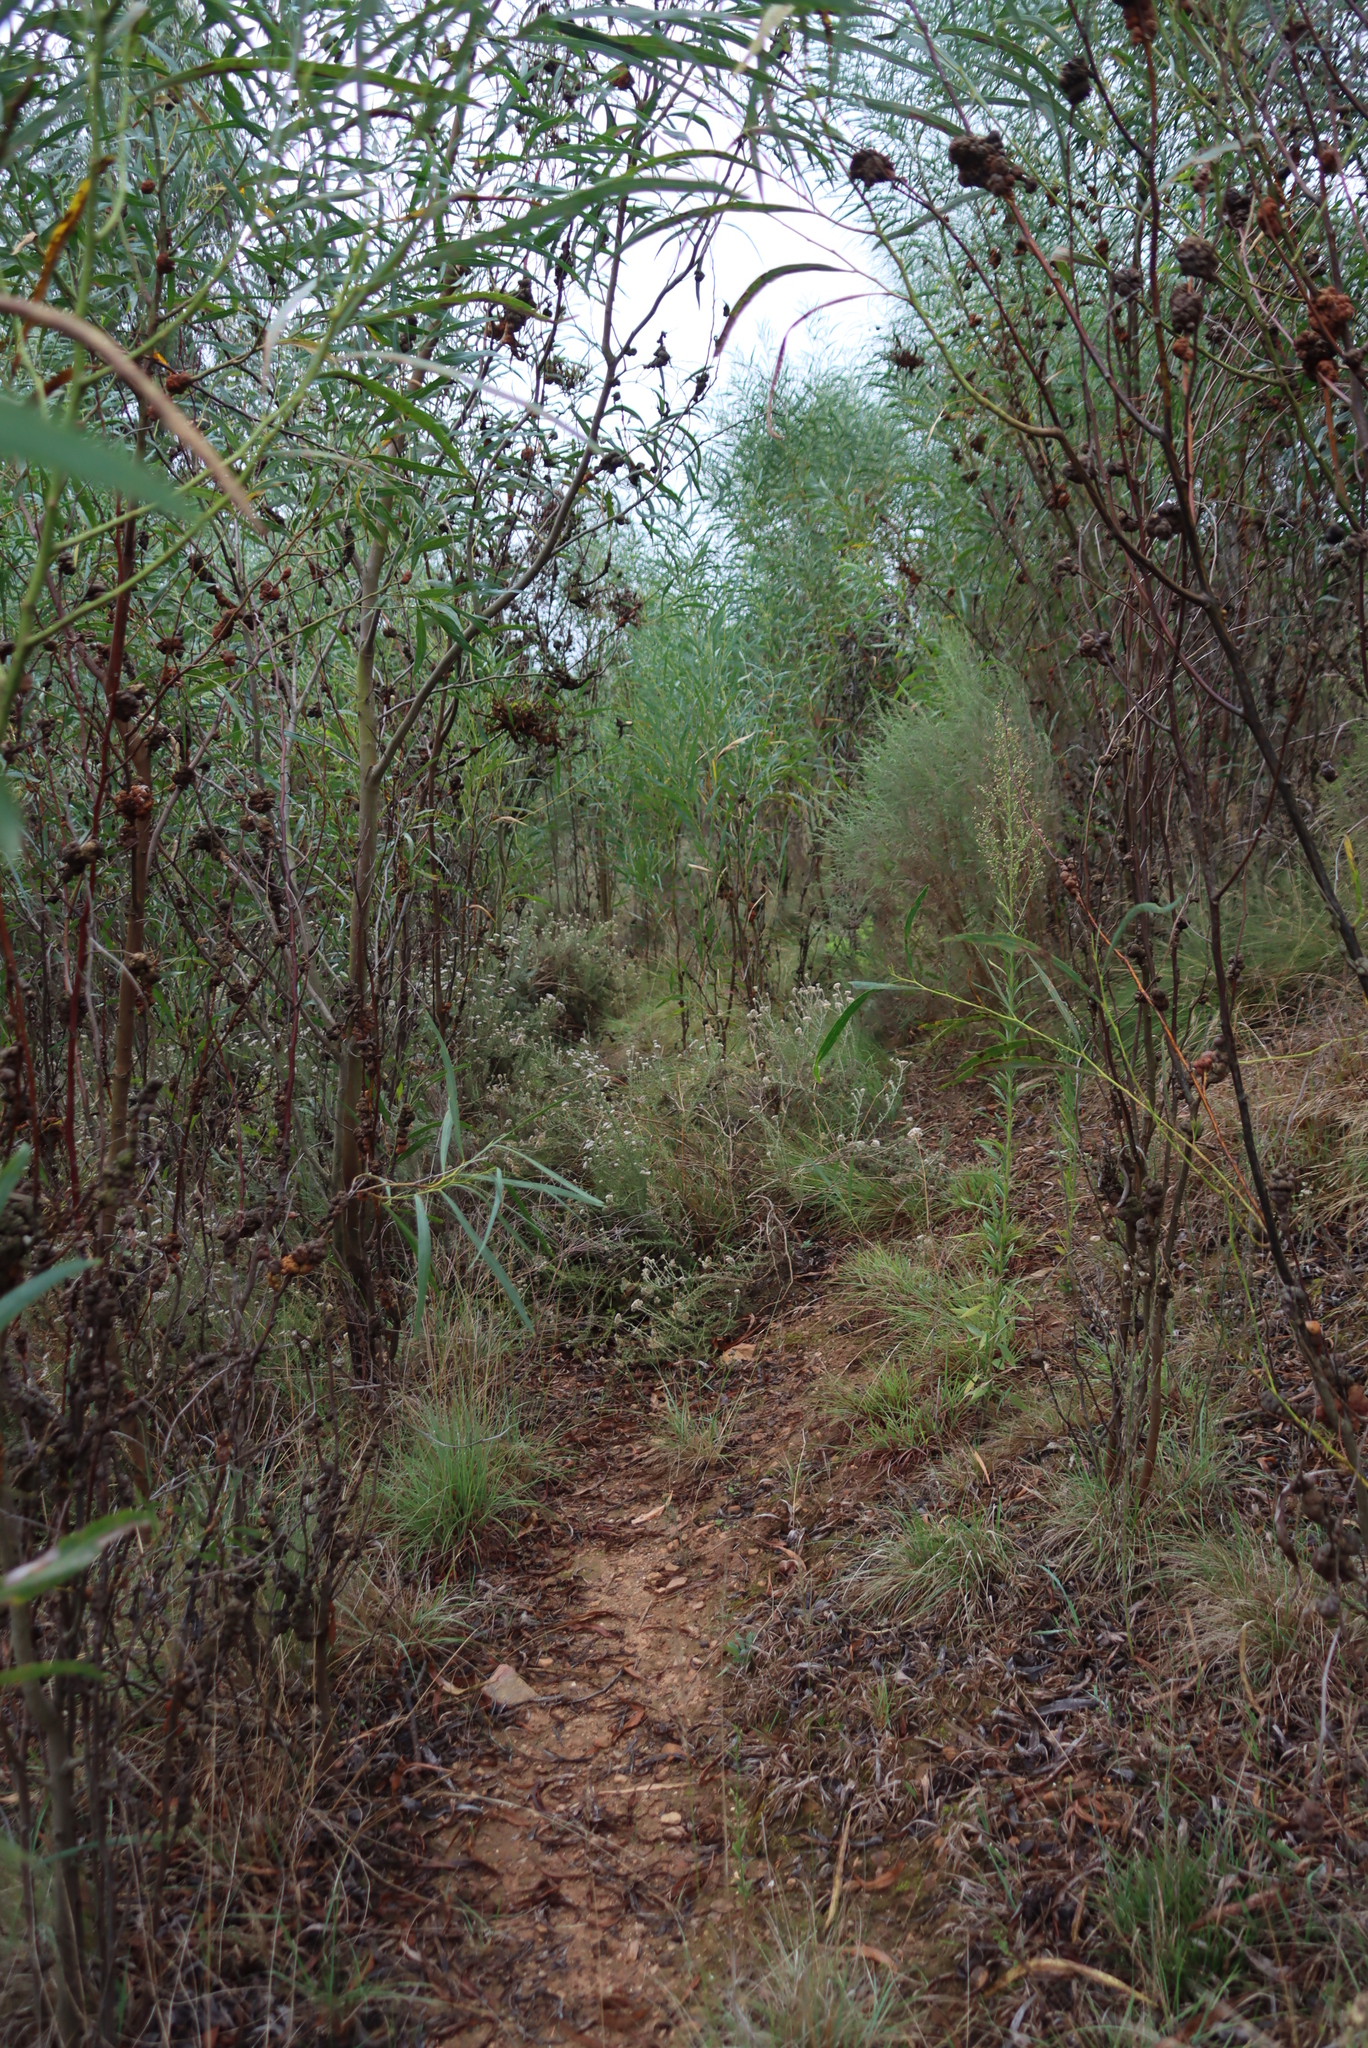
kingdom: Plantae
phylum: Tracheophyta
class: Magnoliopsida
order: Fabales
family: Fabaceae
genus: Acacia
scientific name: Acacia saligna
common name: Orange wattle
